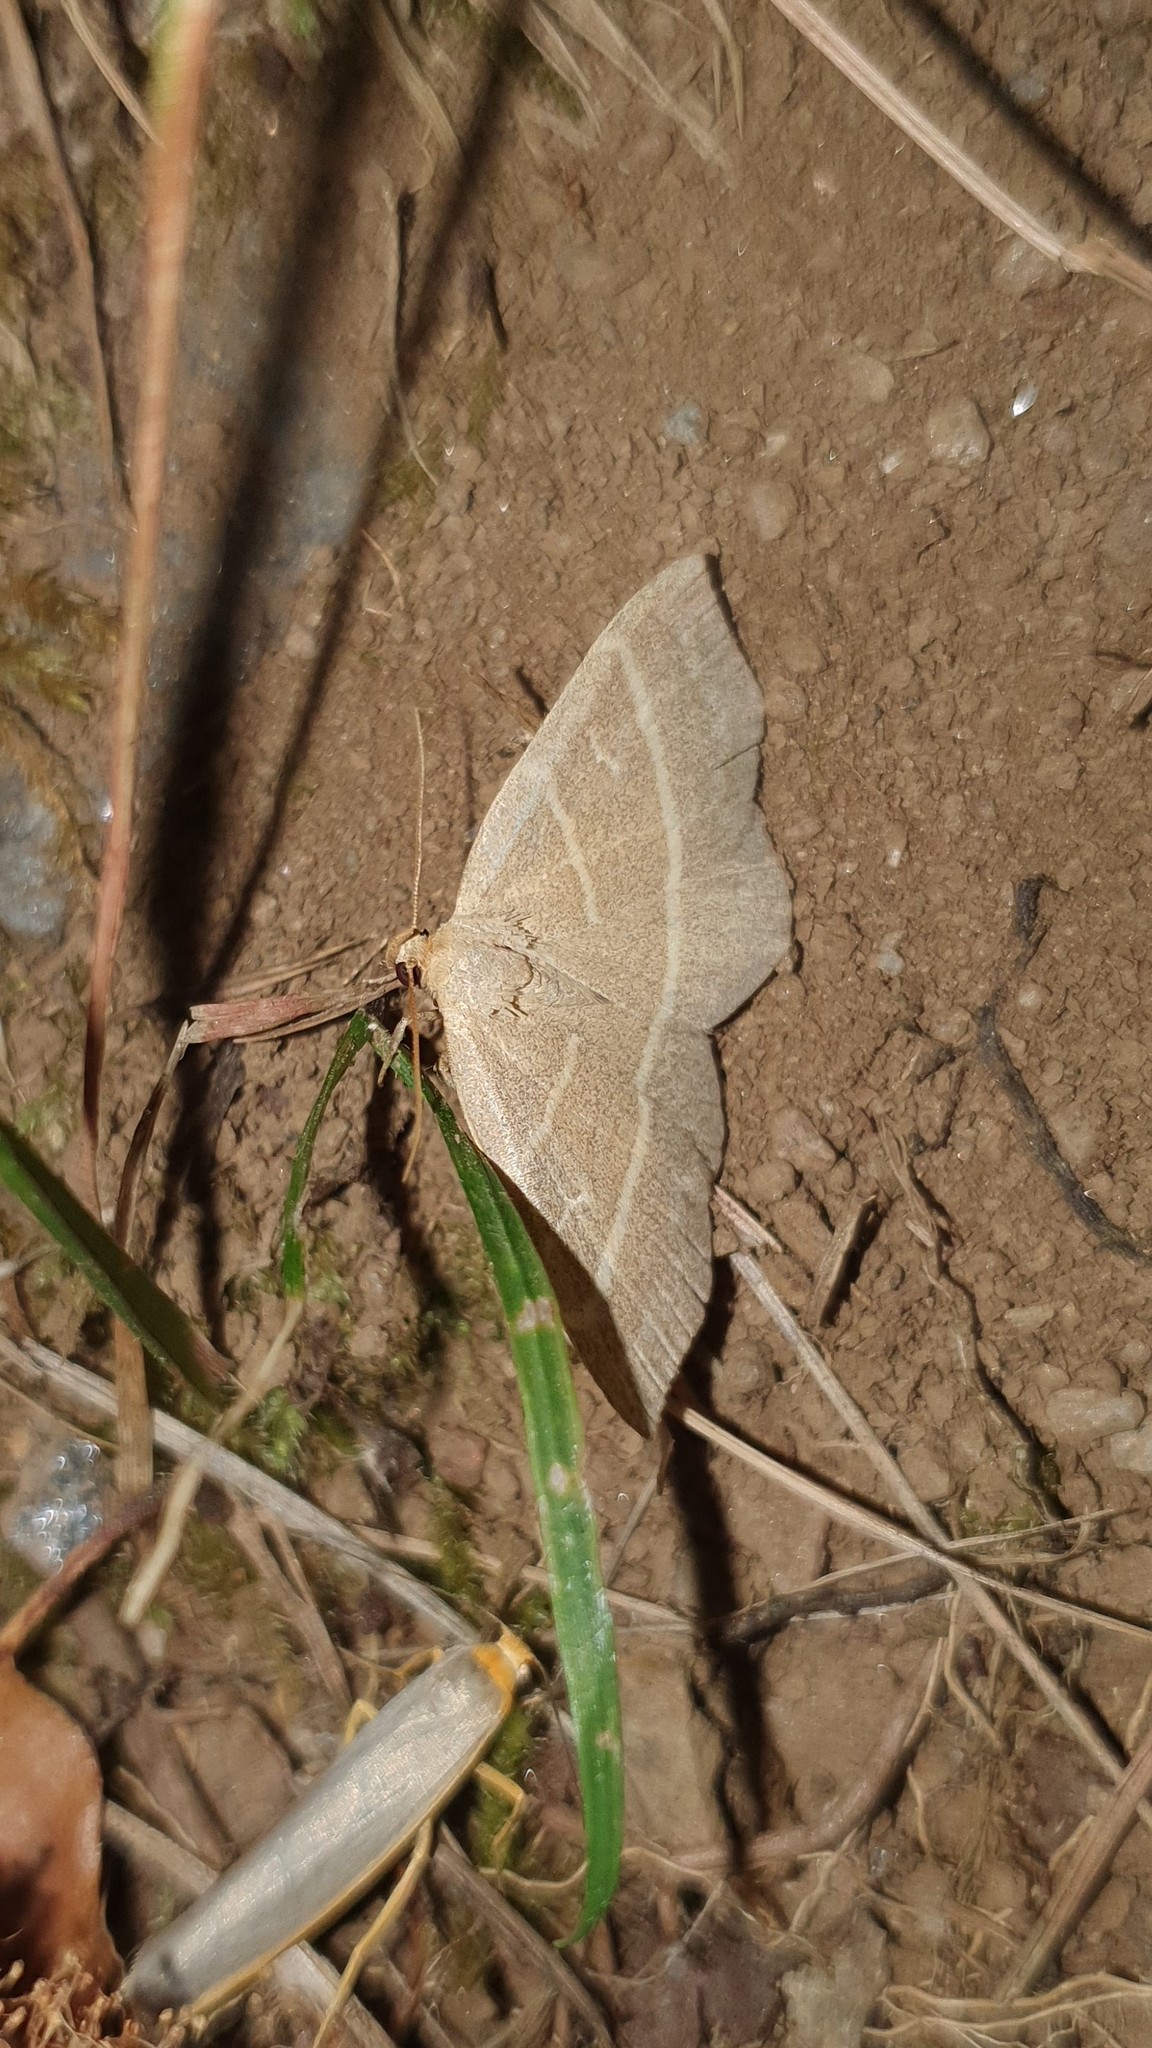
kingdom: Animalia
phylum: Arthropoda
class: Insecta
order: Lepidoptera
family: Erebidae
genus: Trisateles
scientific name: Trisateles emortualis
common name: Olive crescent
